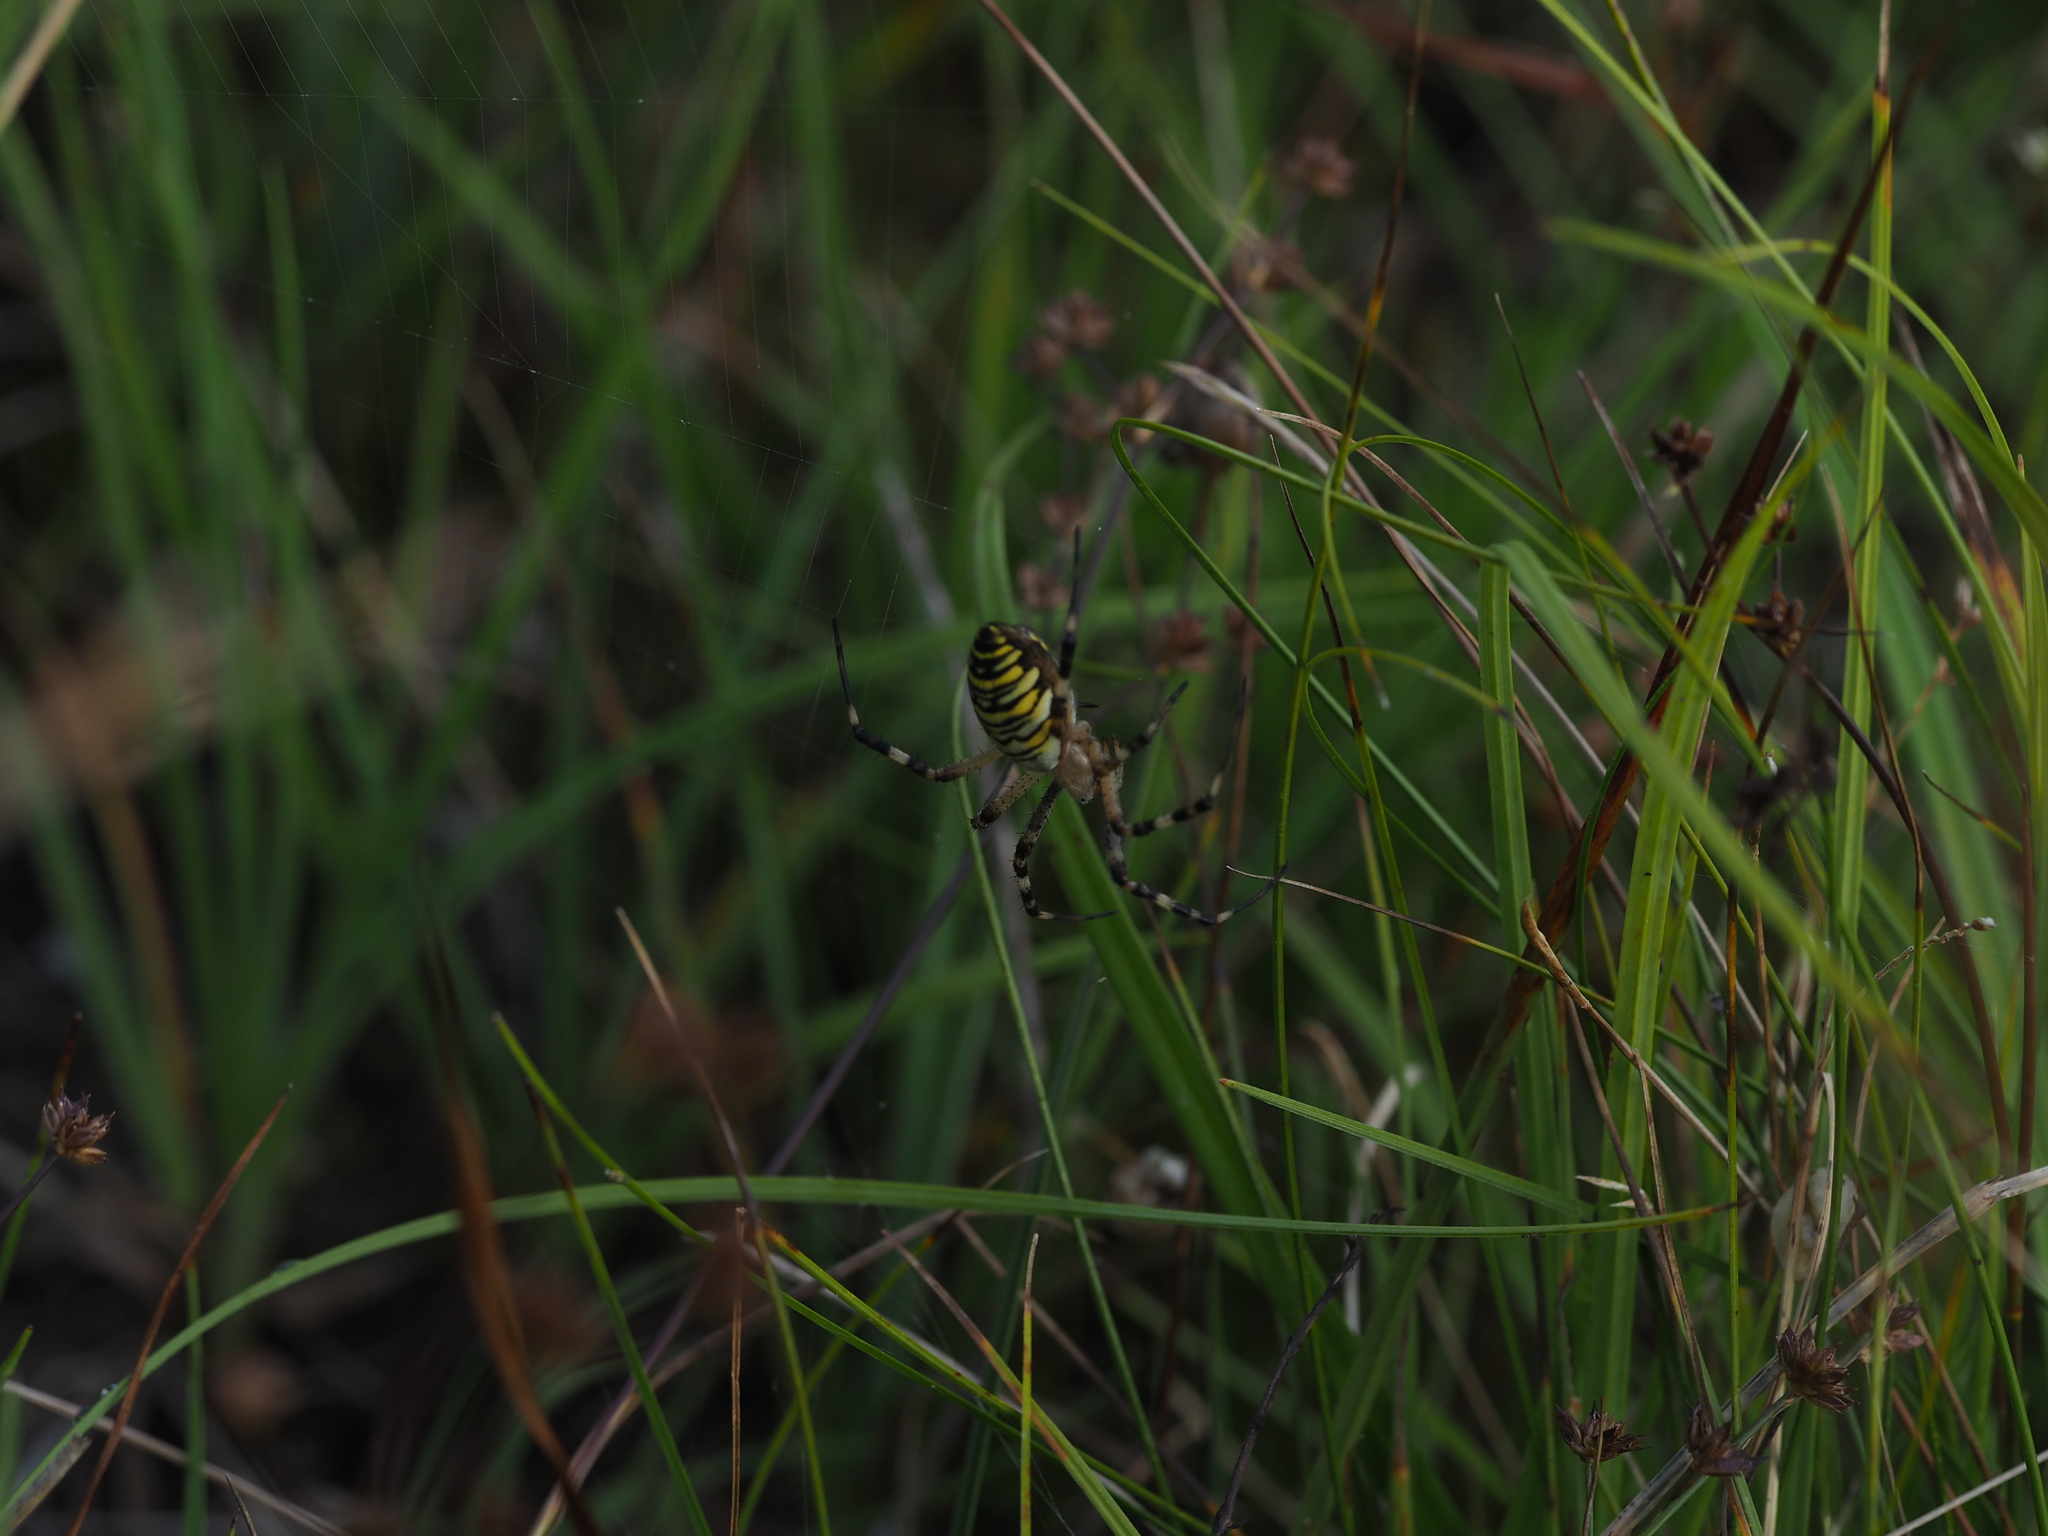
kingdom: Animalia
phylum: Arthropoda
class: Arachnida
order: Araneae
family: Araneidae
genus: Argiope
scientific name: Argiope bruennichi
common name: Wasp spider
